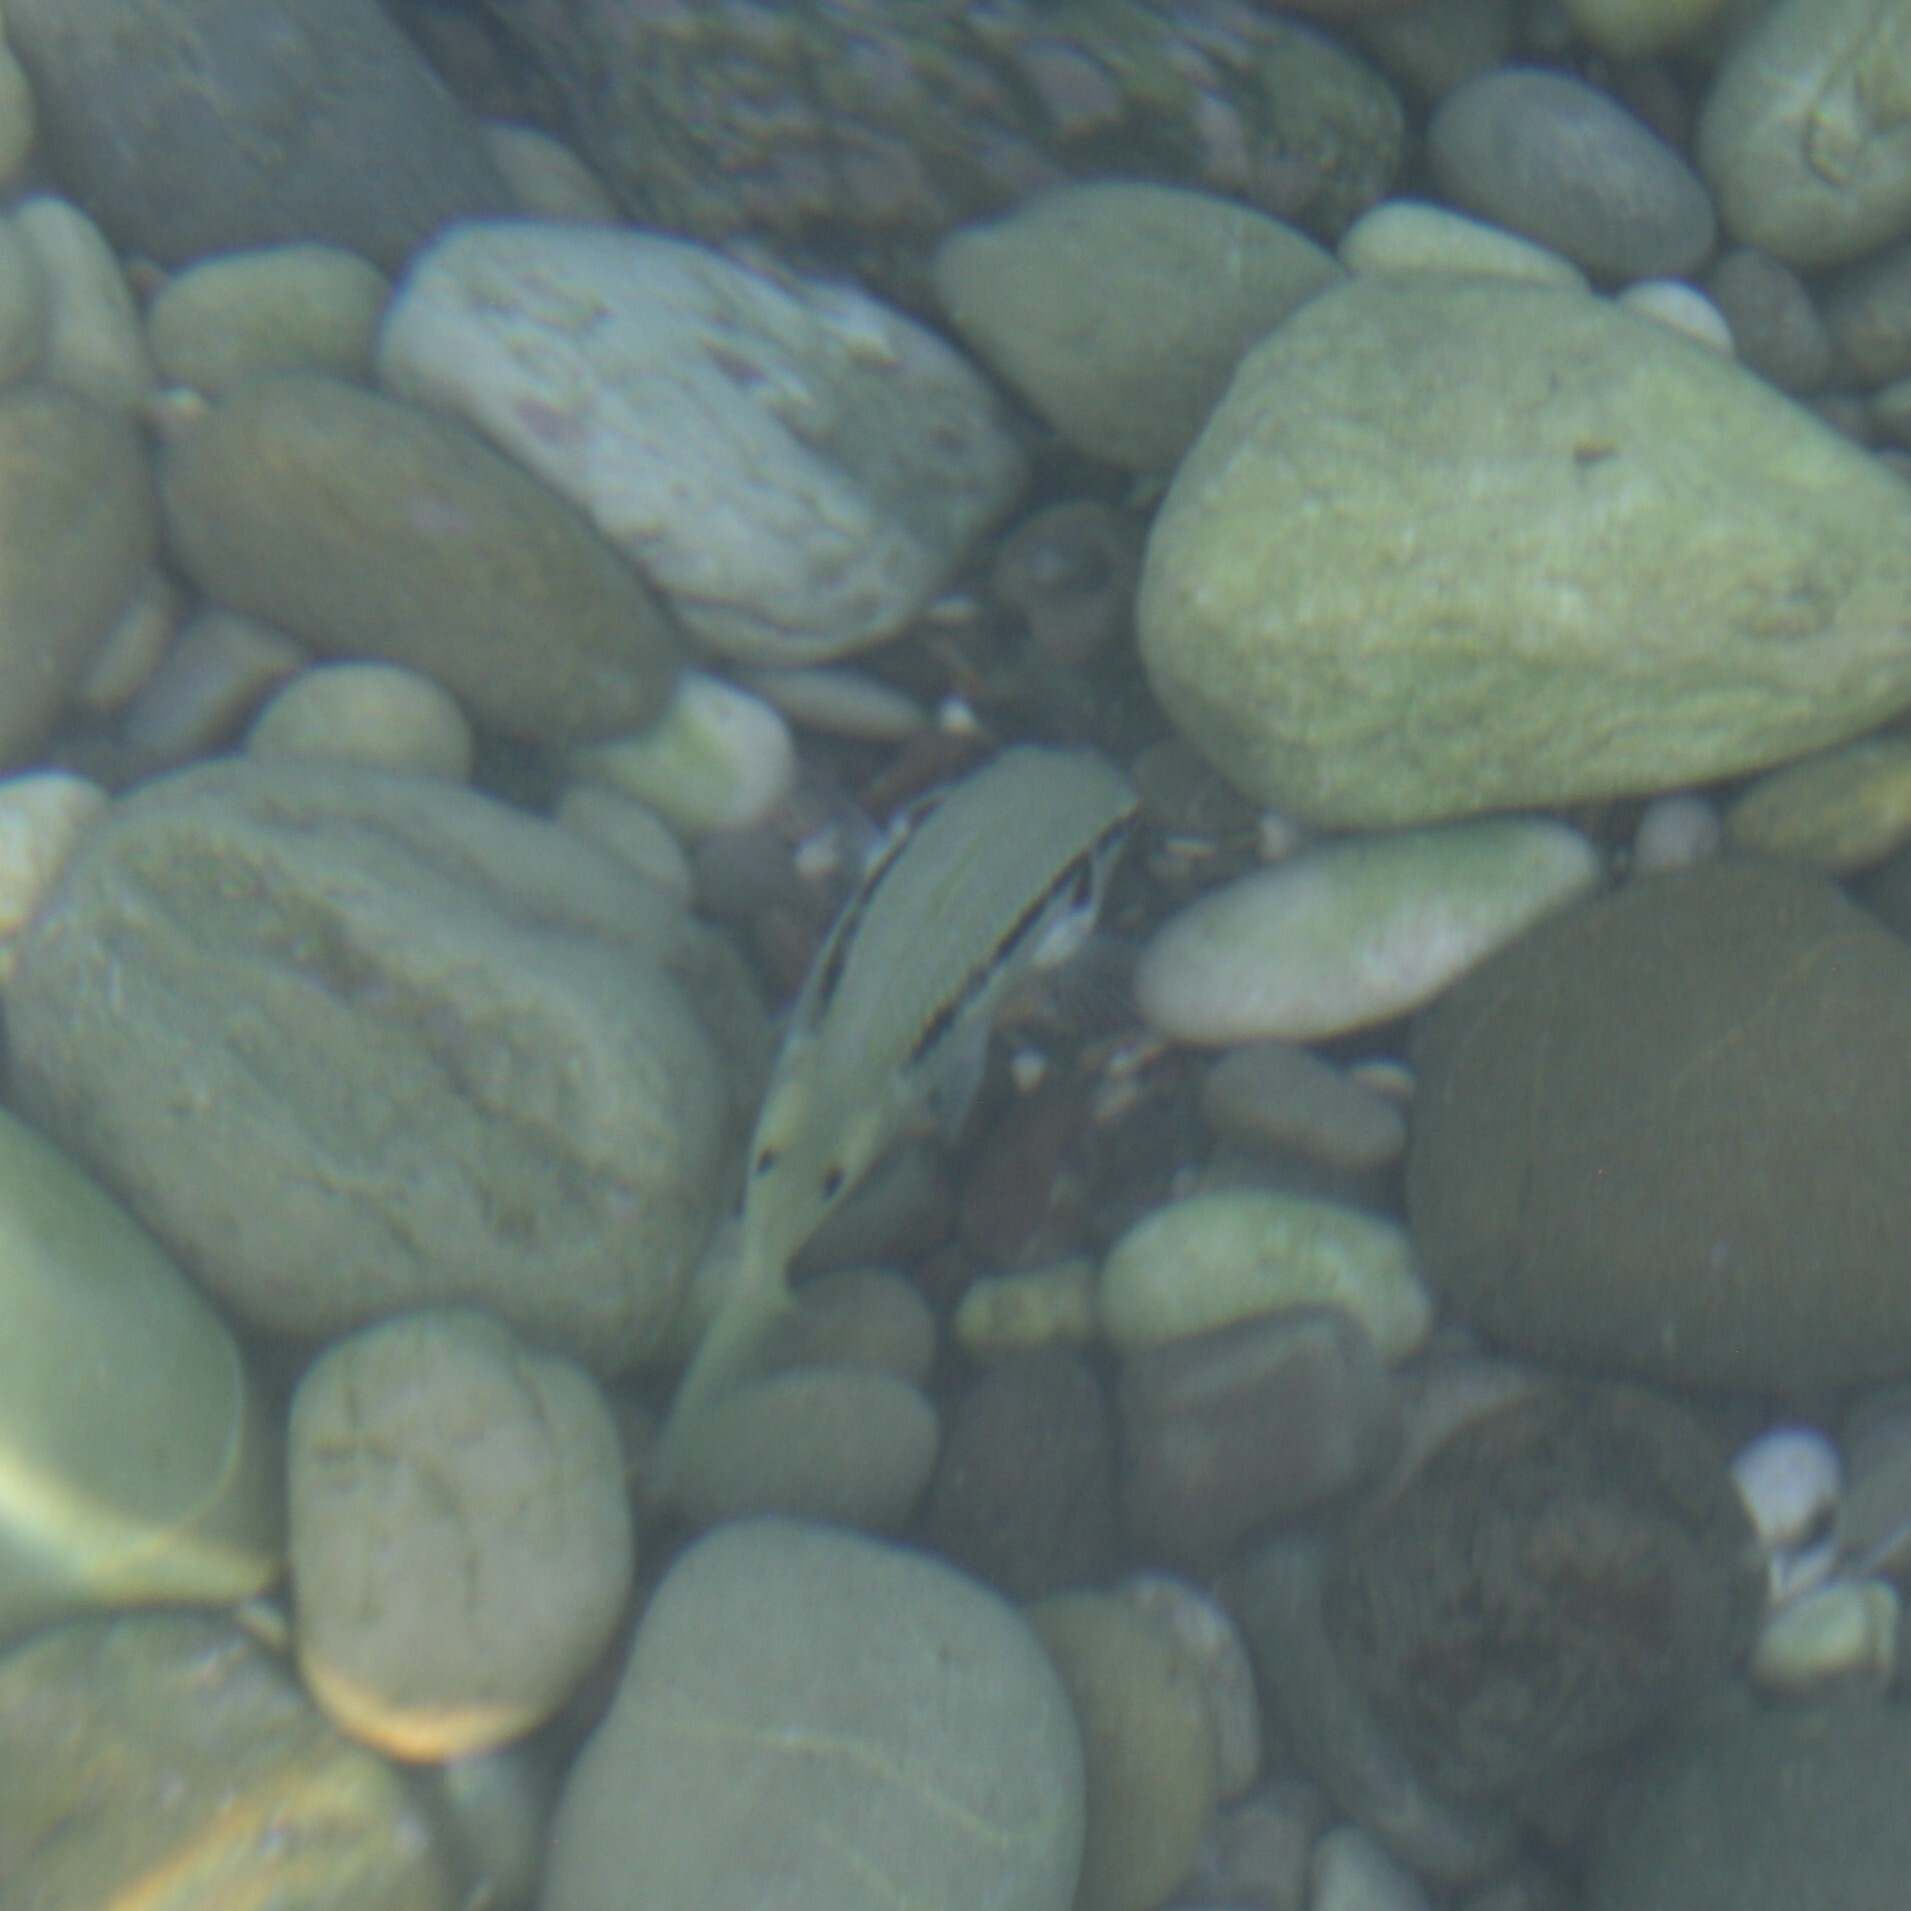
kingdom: Animalia
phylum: Chordata
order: Perciformes
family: Mullidae
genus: Parupeneus
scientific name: Parupeneus forsskali
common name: Red sea goatfish
